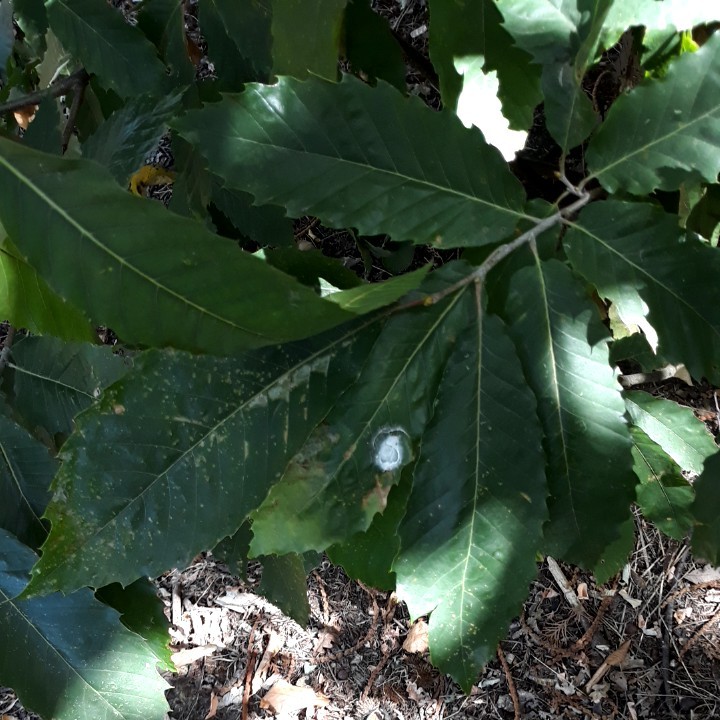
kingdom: Plantae
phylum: Tracheophyta
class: Magnoliopsida
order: Fagales
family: Fagaceae
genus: Castanea
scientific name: Castanea sativa
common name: Sweet chestnut
